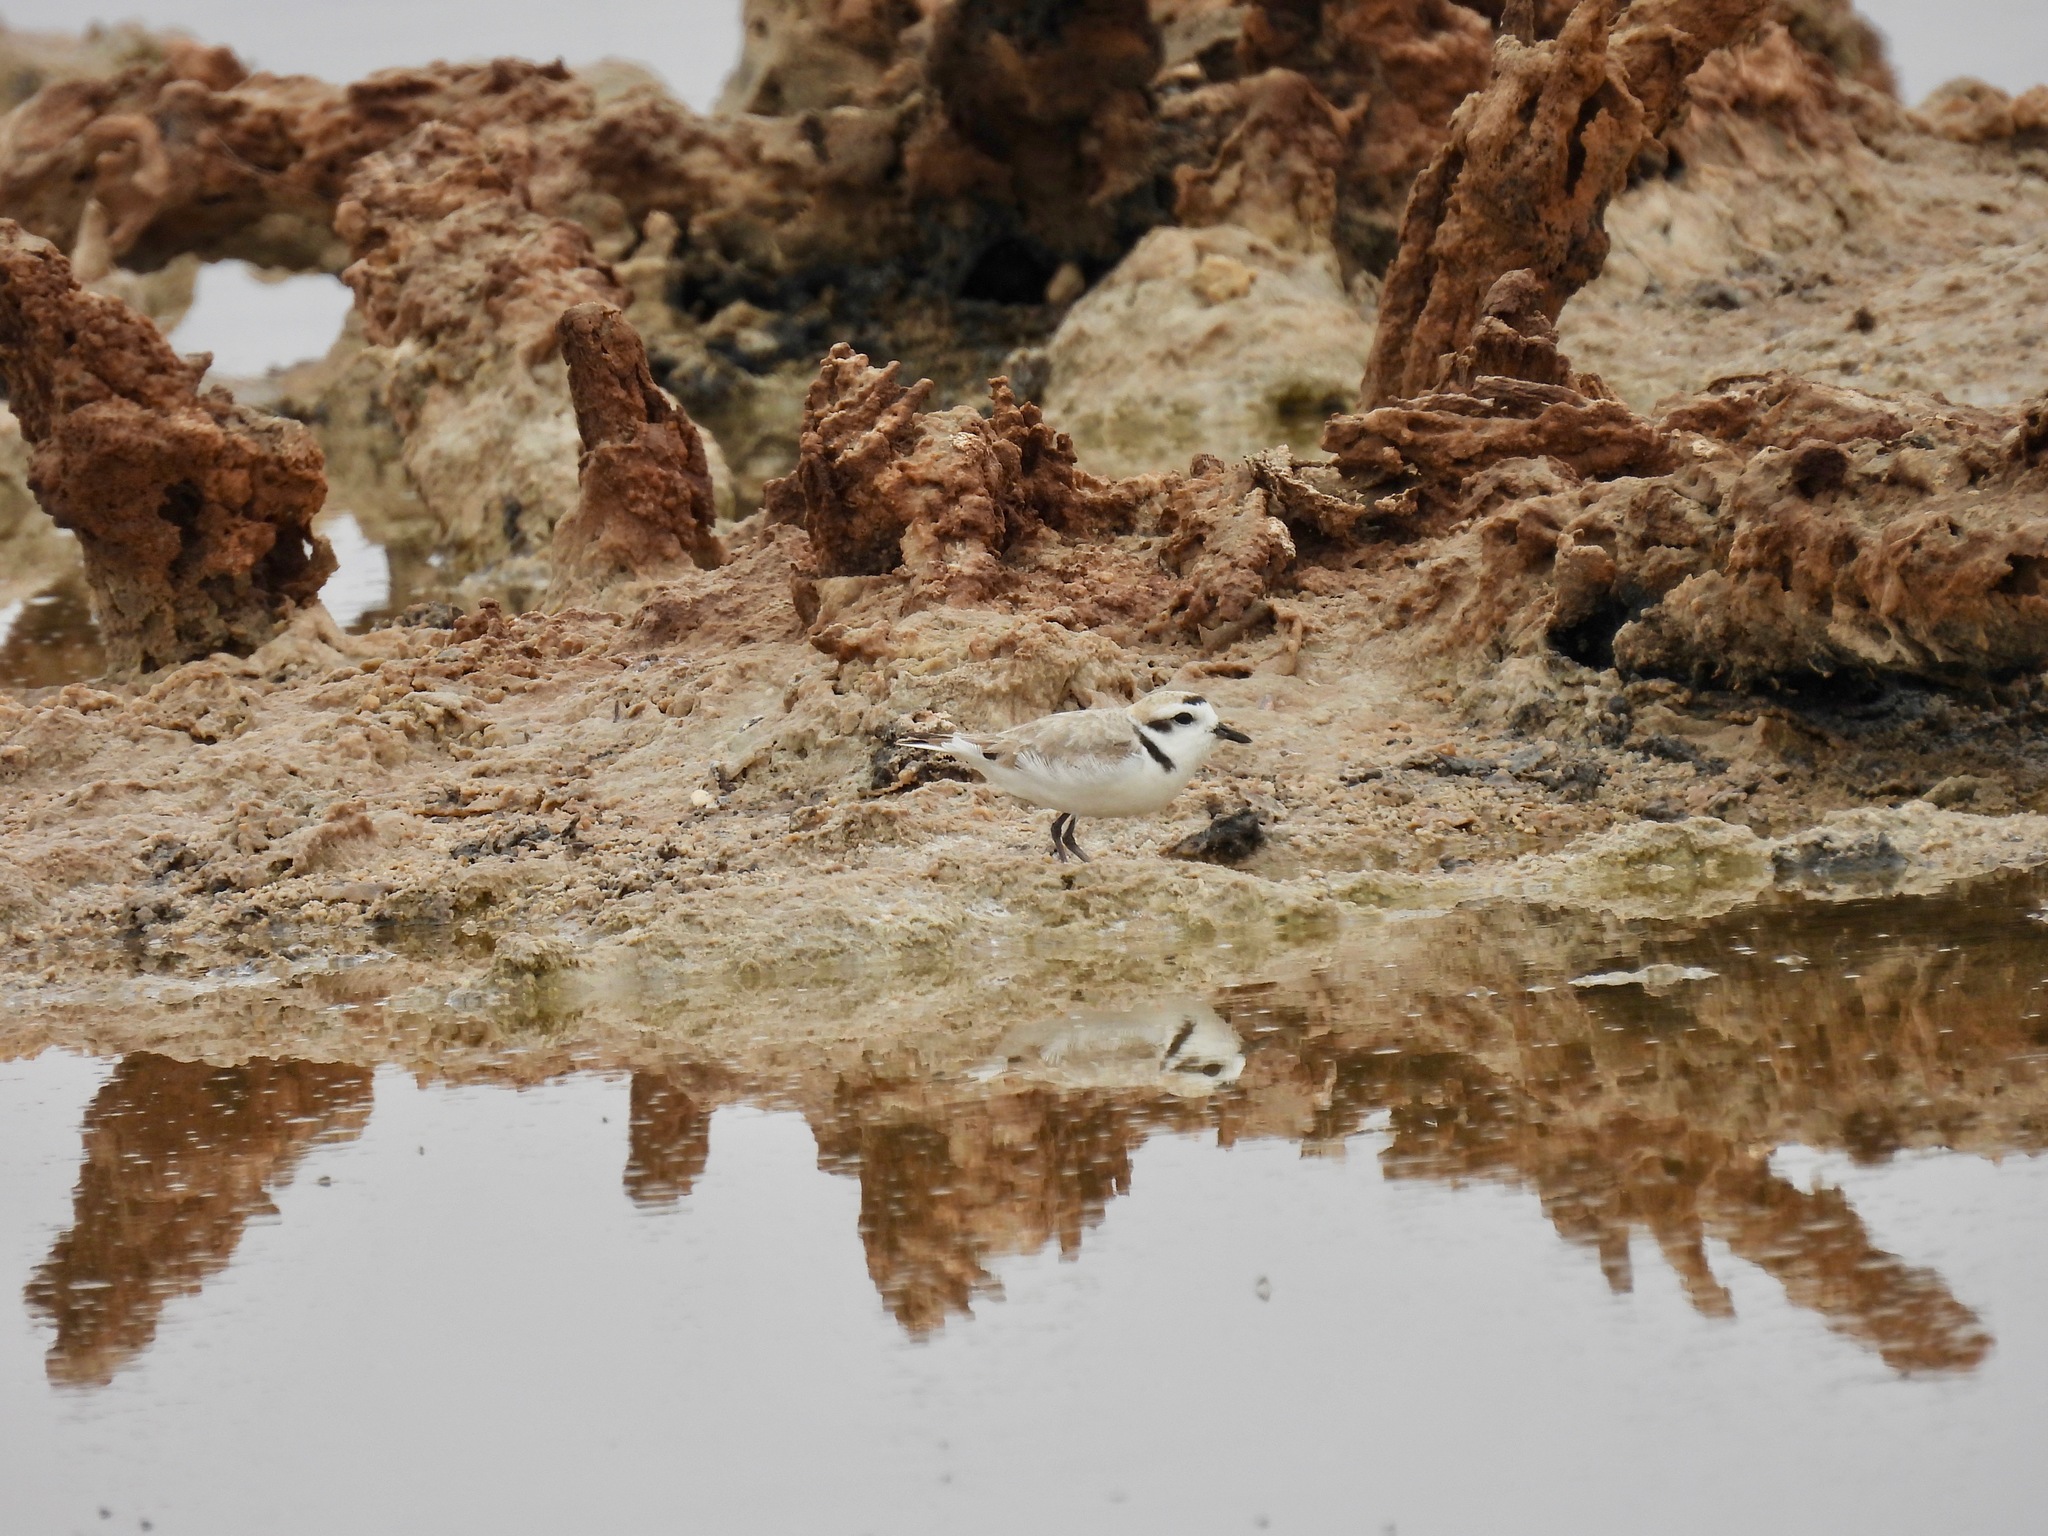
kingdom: Animalia
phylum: Chordata
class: Aves
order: Charadriiformes
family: Charadriidae
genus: Anarhynchus
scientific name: Anarhynchus
